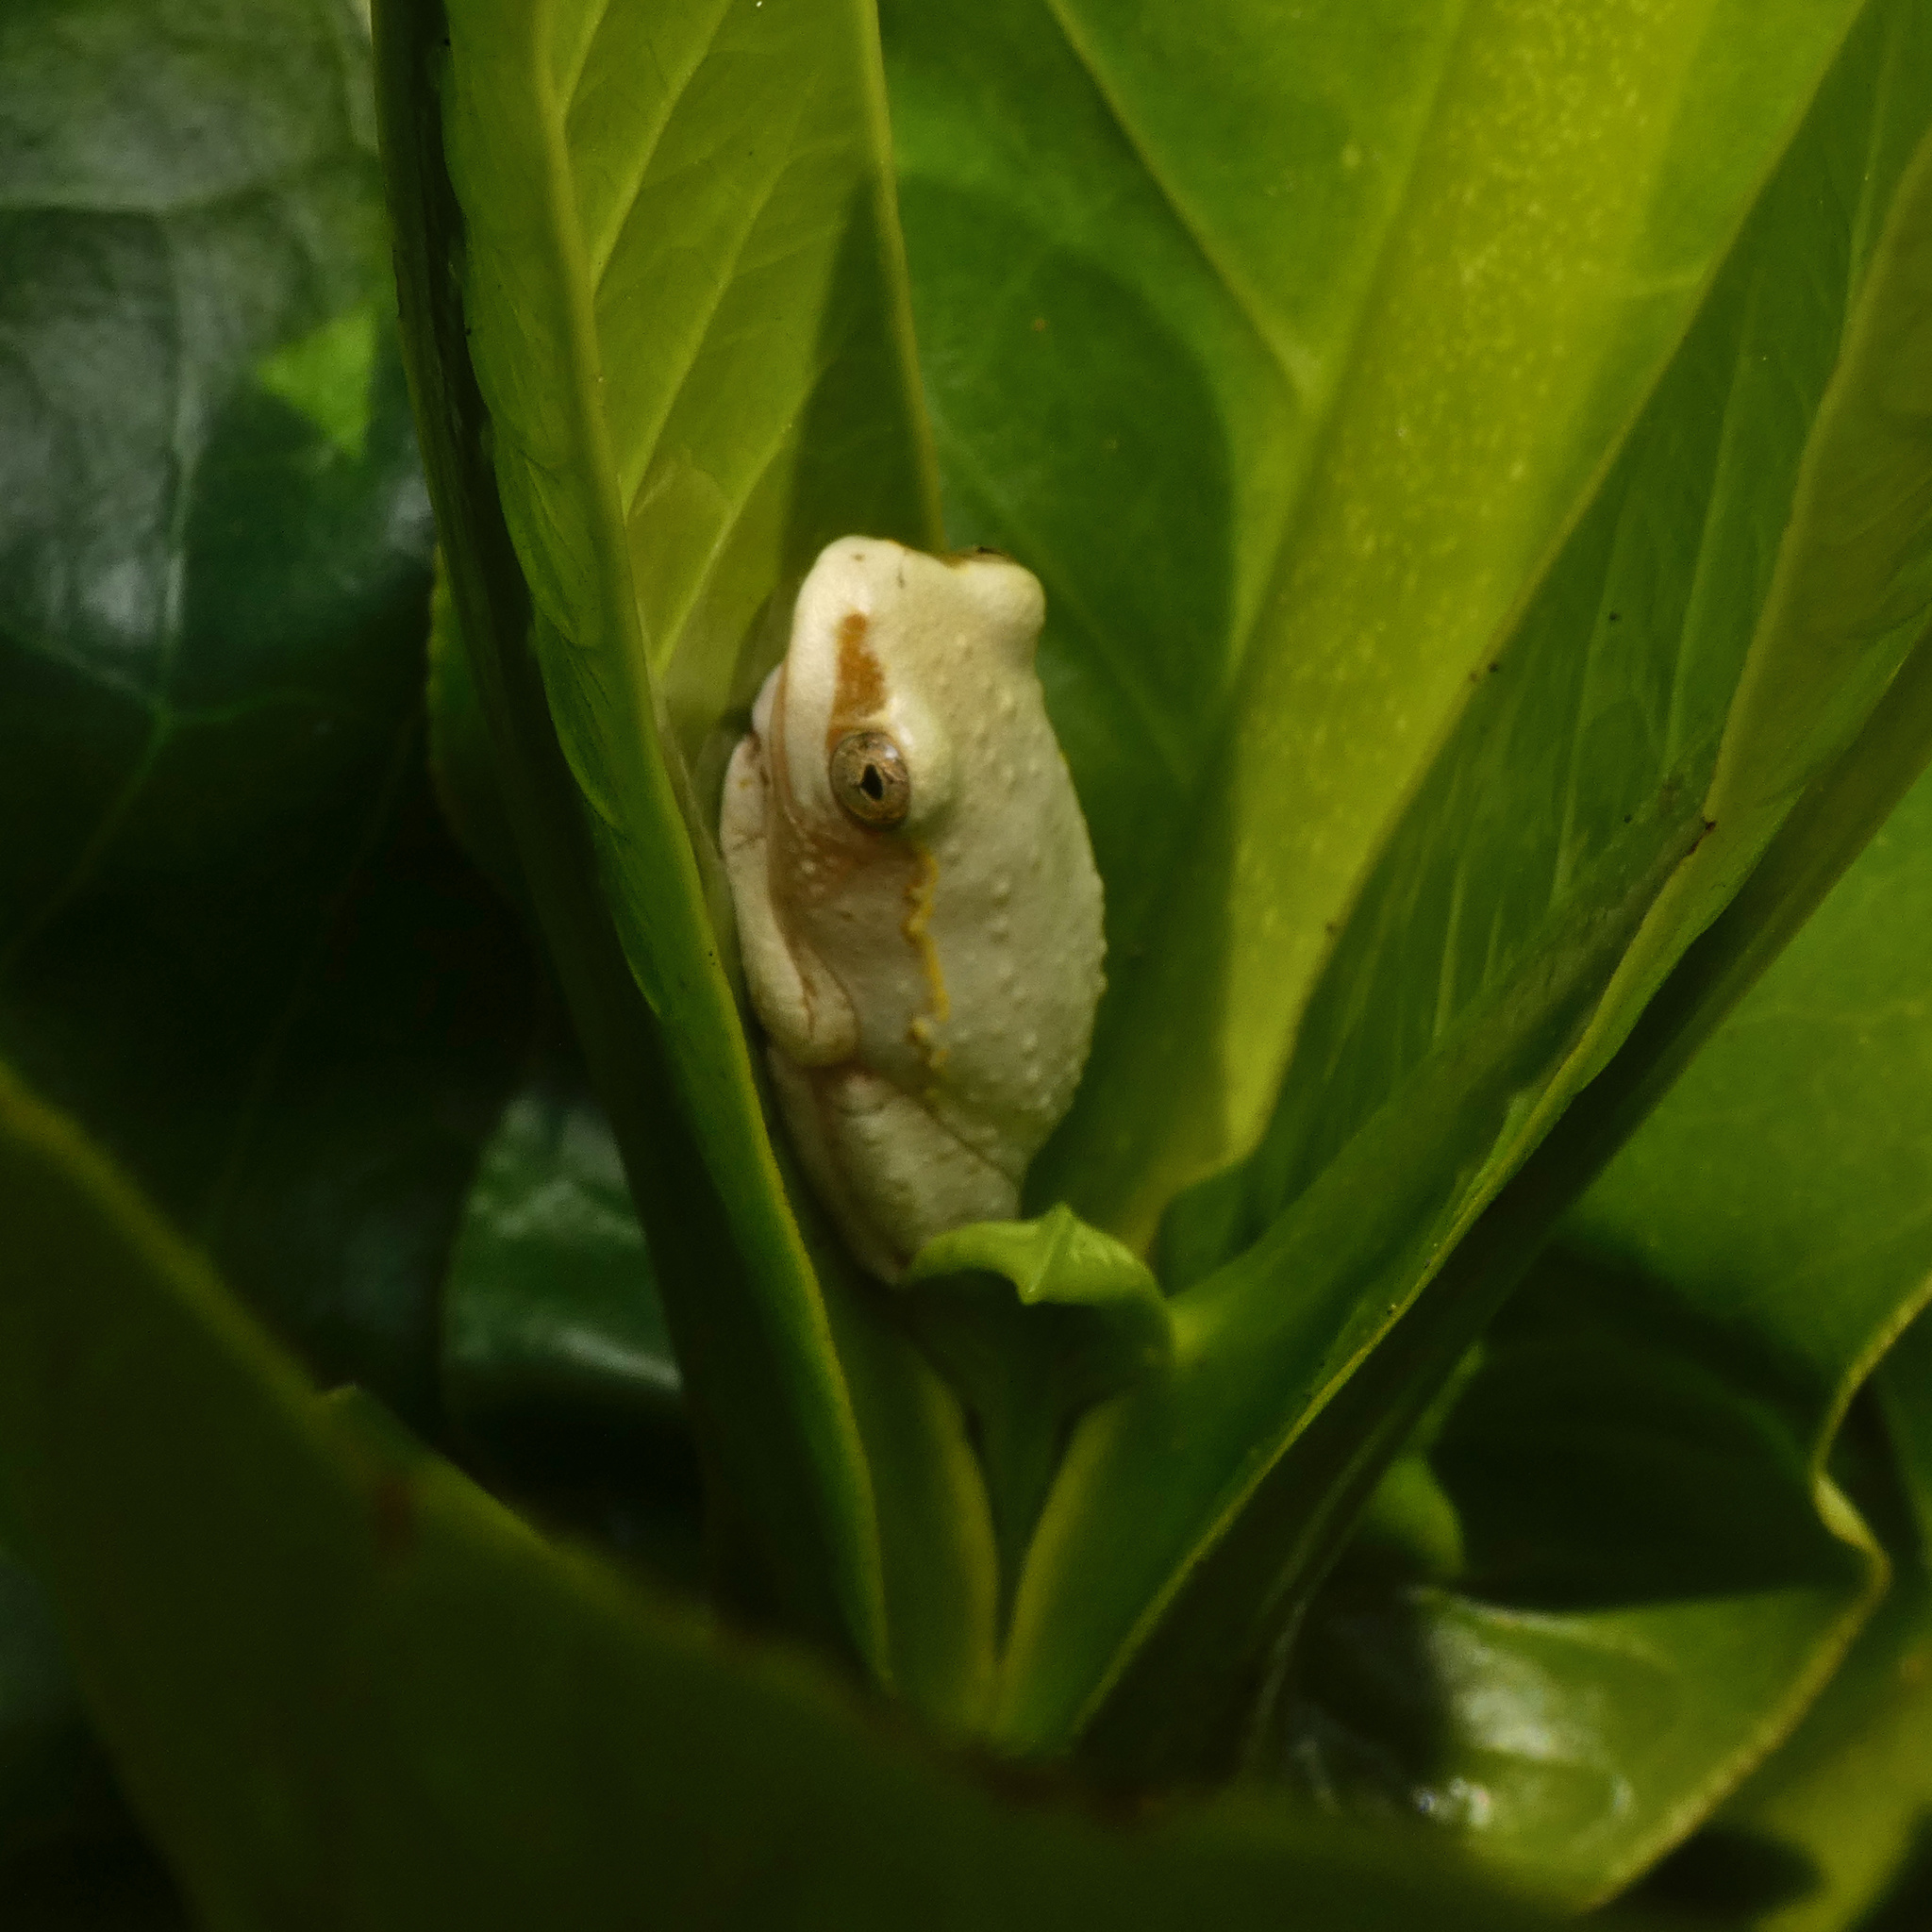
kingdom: Animalia
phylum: Chordata
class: Amphibia
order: Anura
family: Hyperoliidae
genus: Hyperolius
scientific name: Hyperolius viridiflavus
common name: Common reed frog
